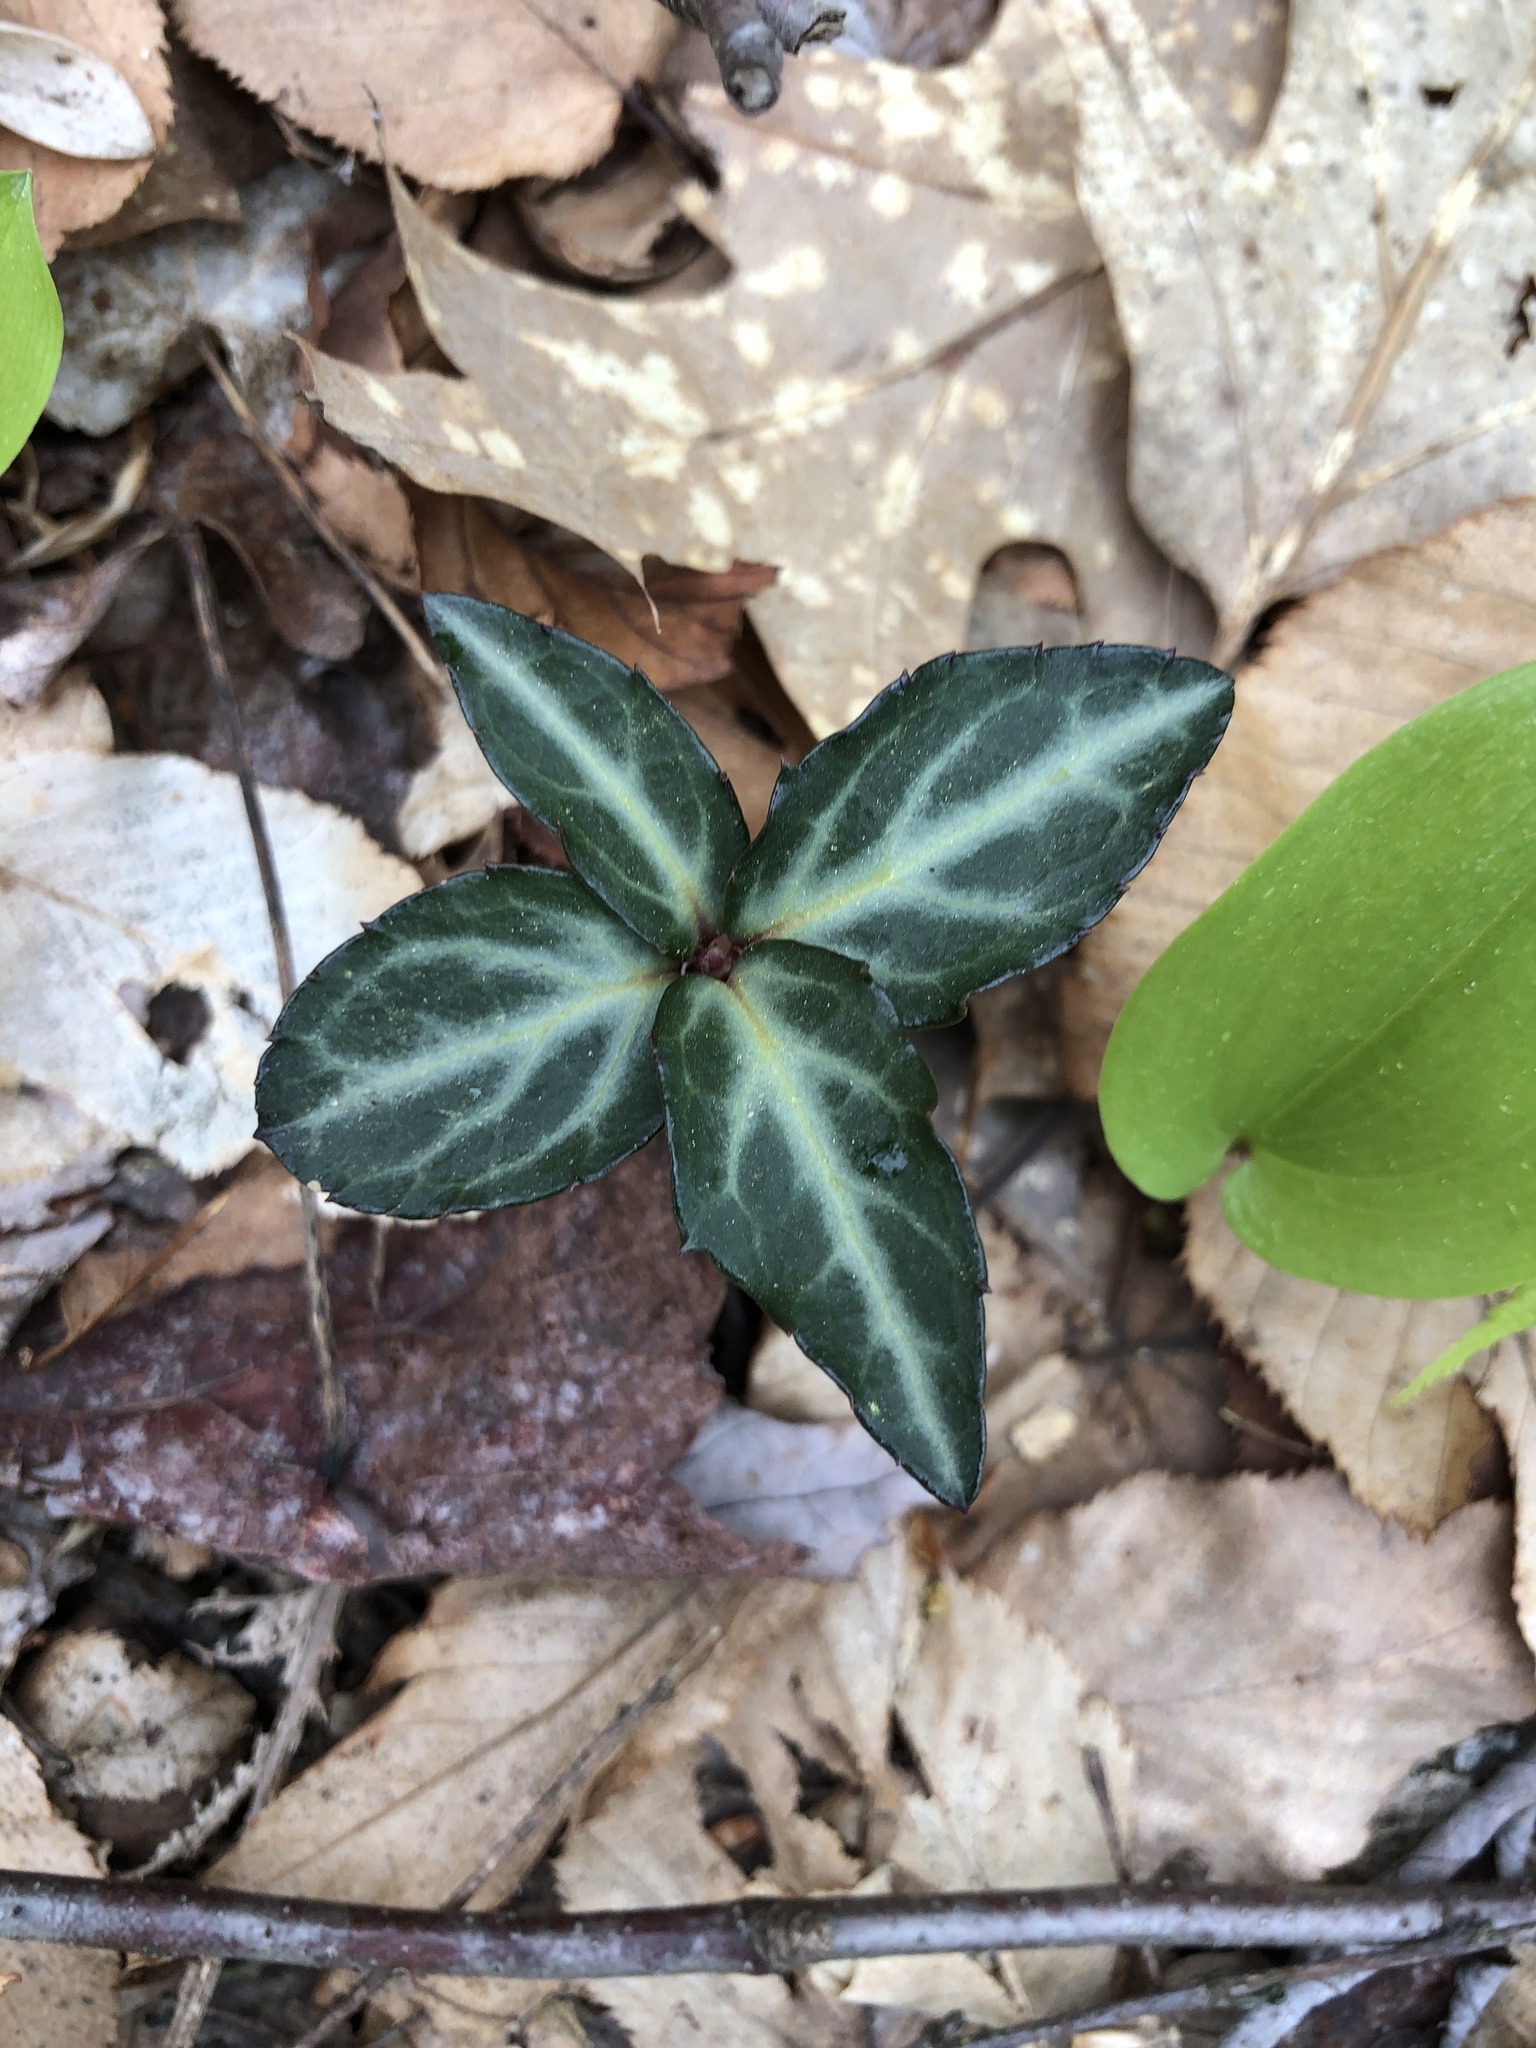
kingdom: Plantae
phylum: Tracheophyta
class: Magnoliopsida
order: Ericales
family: Ericaceae
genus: Chimaphila
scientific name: Chimaphila maculata
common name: Spotted pipsissewa
